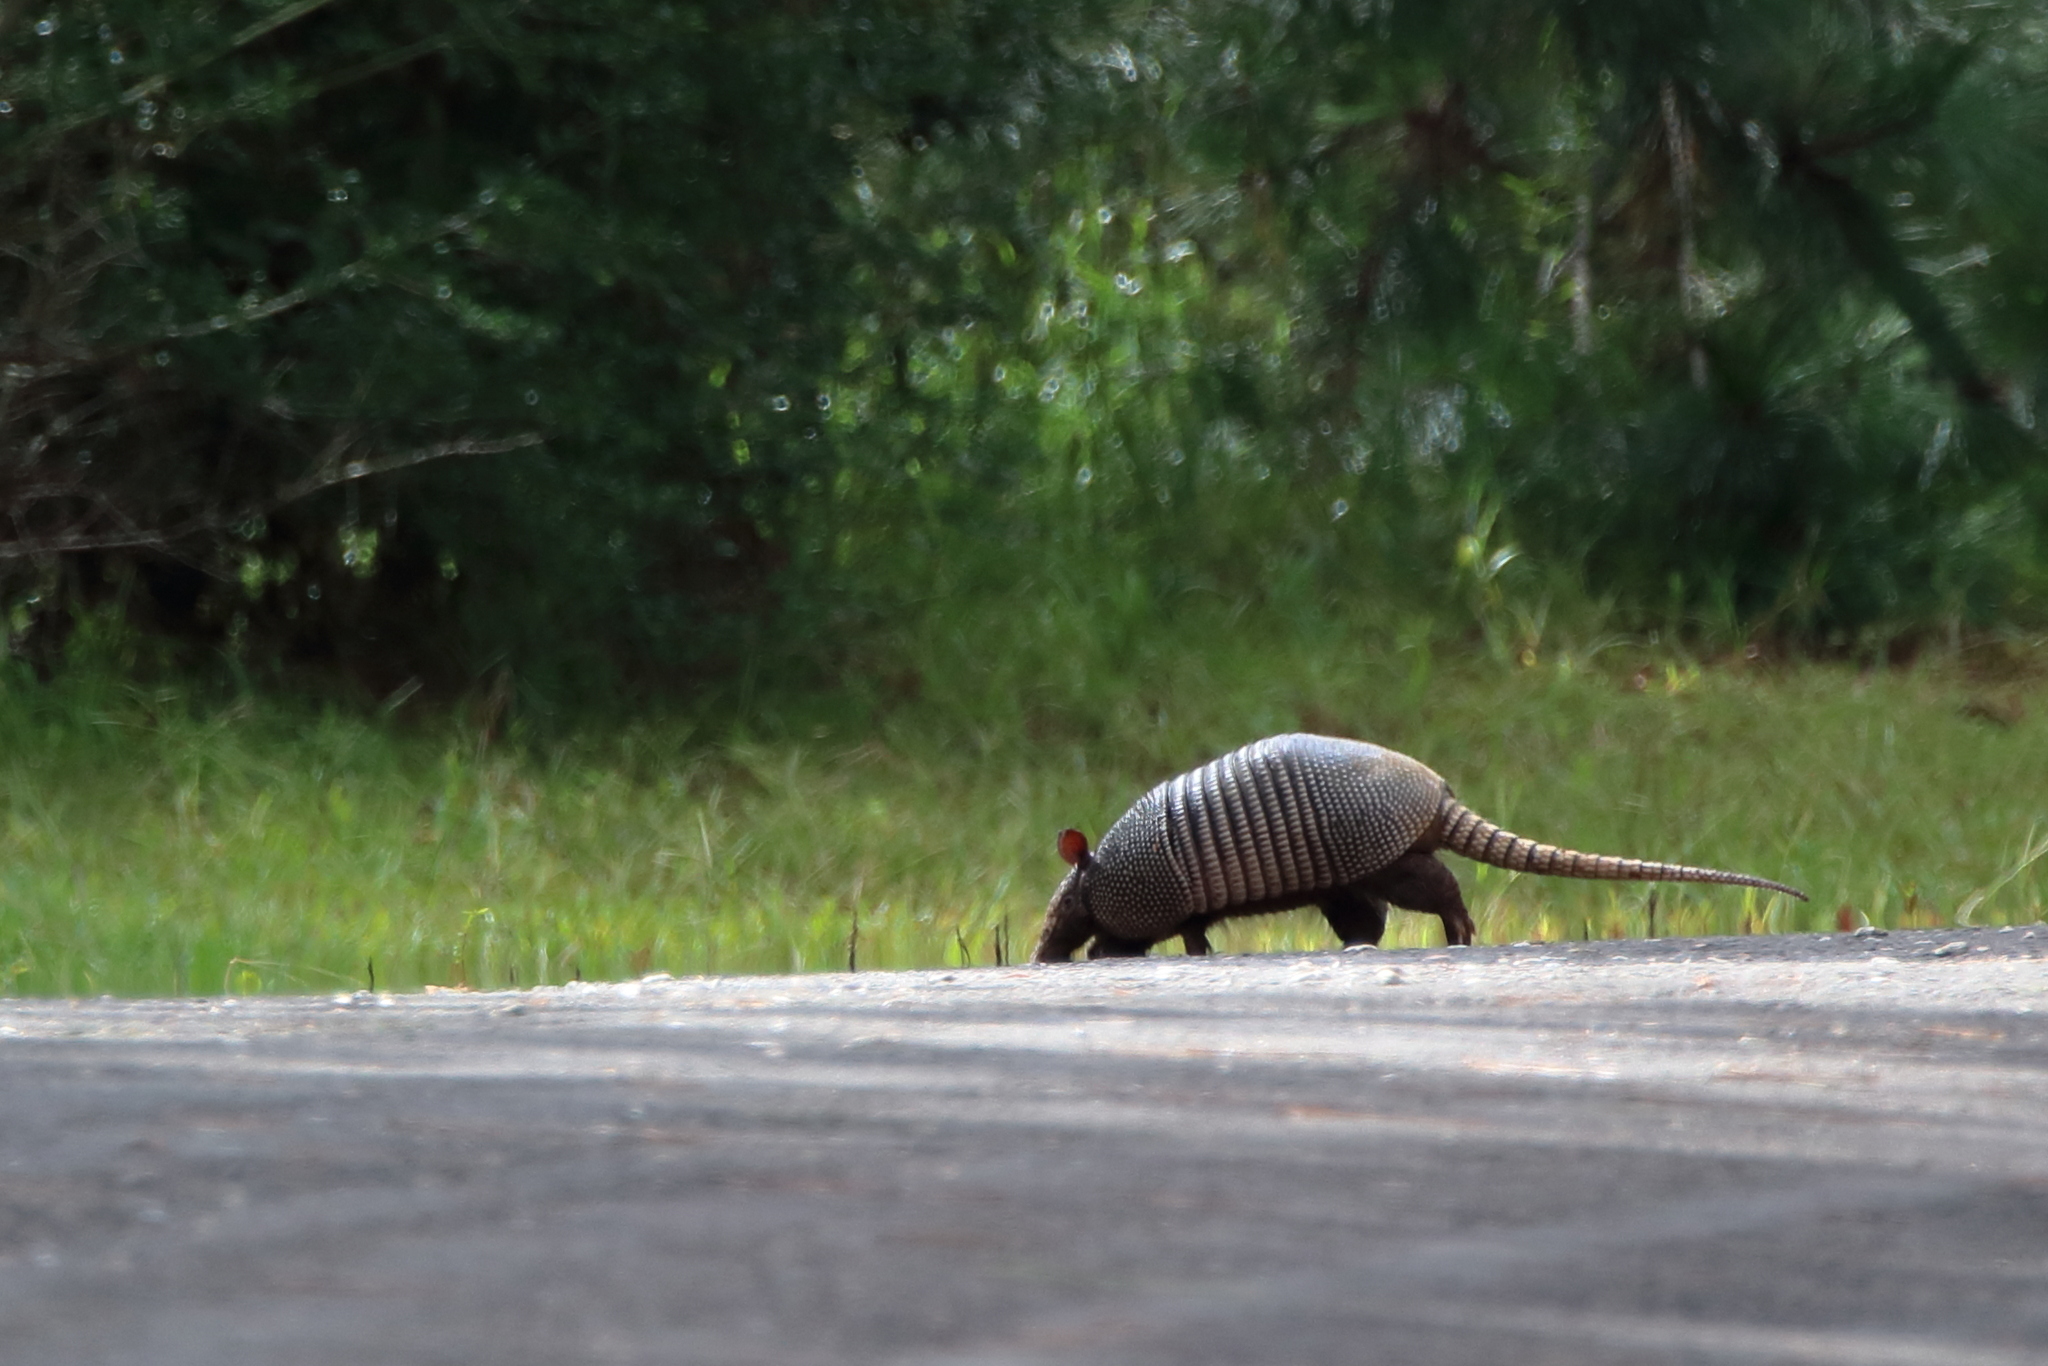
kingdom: Animalia
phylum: Chordata
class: Mammalia
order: Cingulata
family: Dasypodidae
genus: Dasypus
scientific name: Dasypus novemcinctus
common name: Nine-banded armadillo
